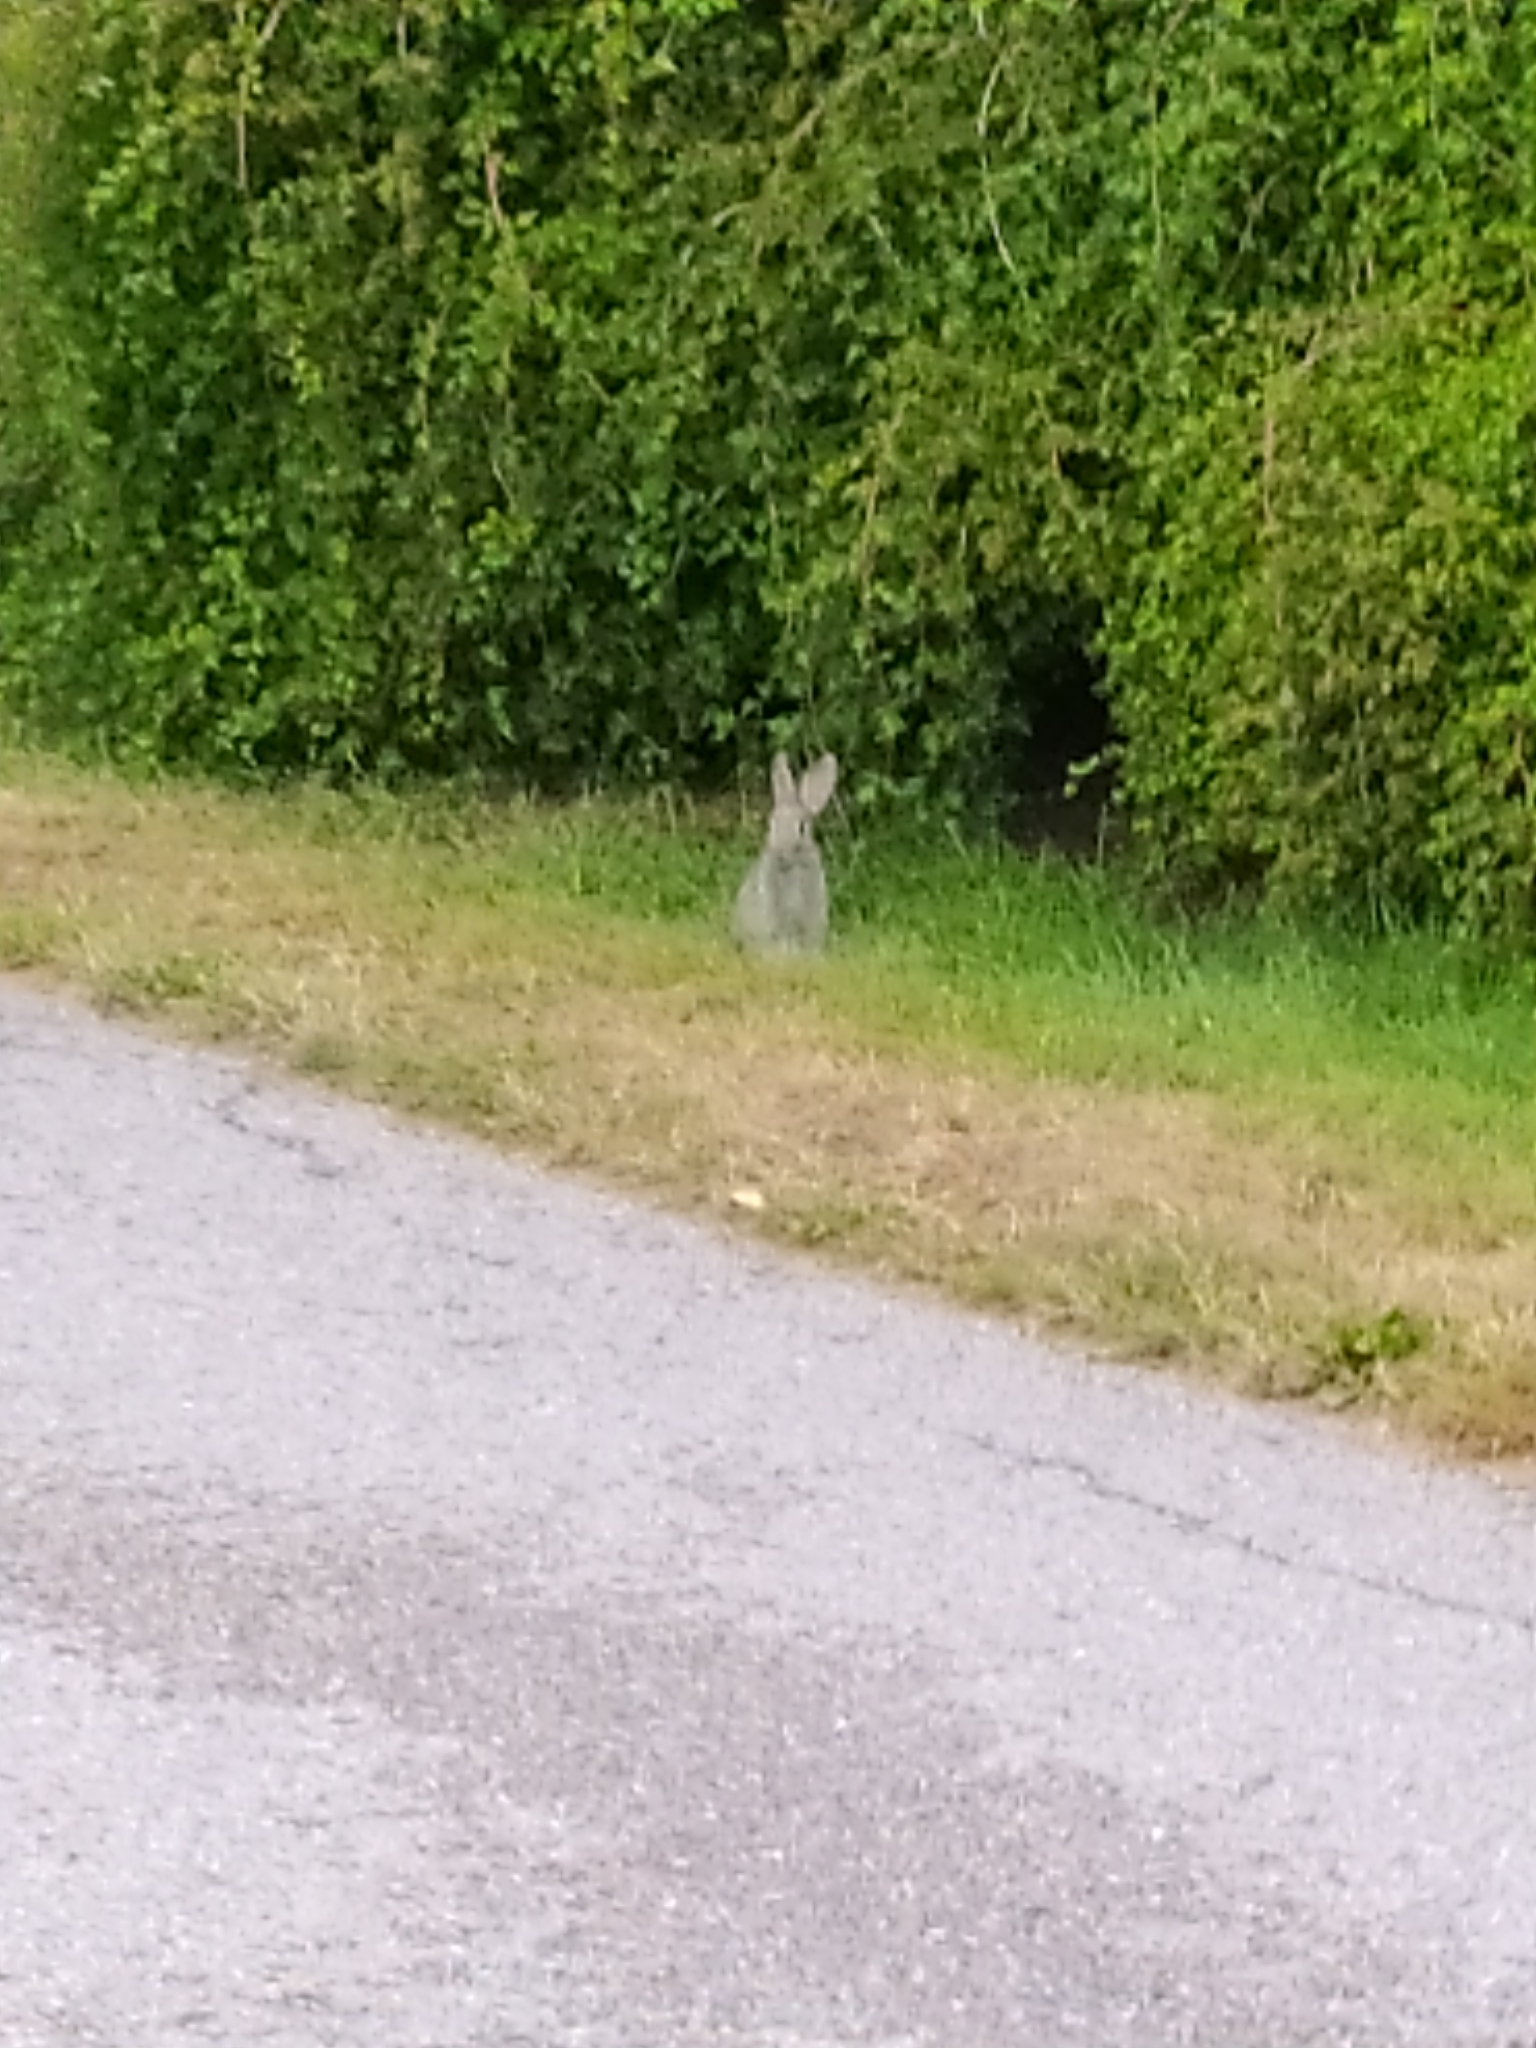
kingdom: Animalia
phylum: Chordata
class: Mammalia
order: Lagomorpha
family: Leporidae
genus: Oryctolagus
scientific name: Oryctolagus cuniculus
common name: European rabbit
